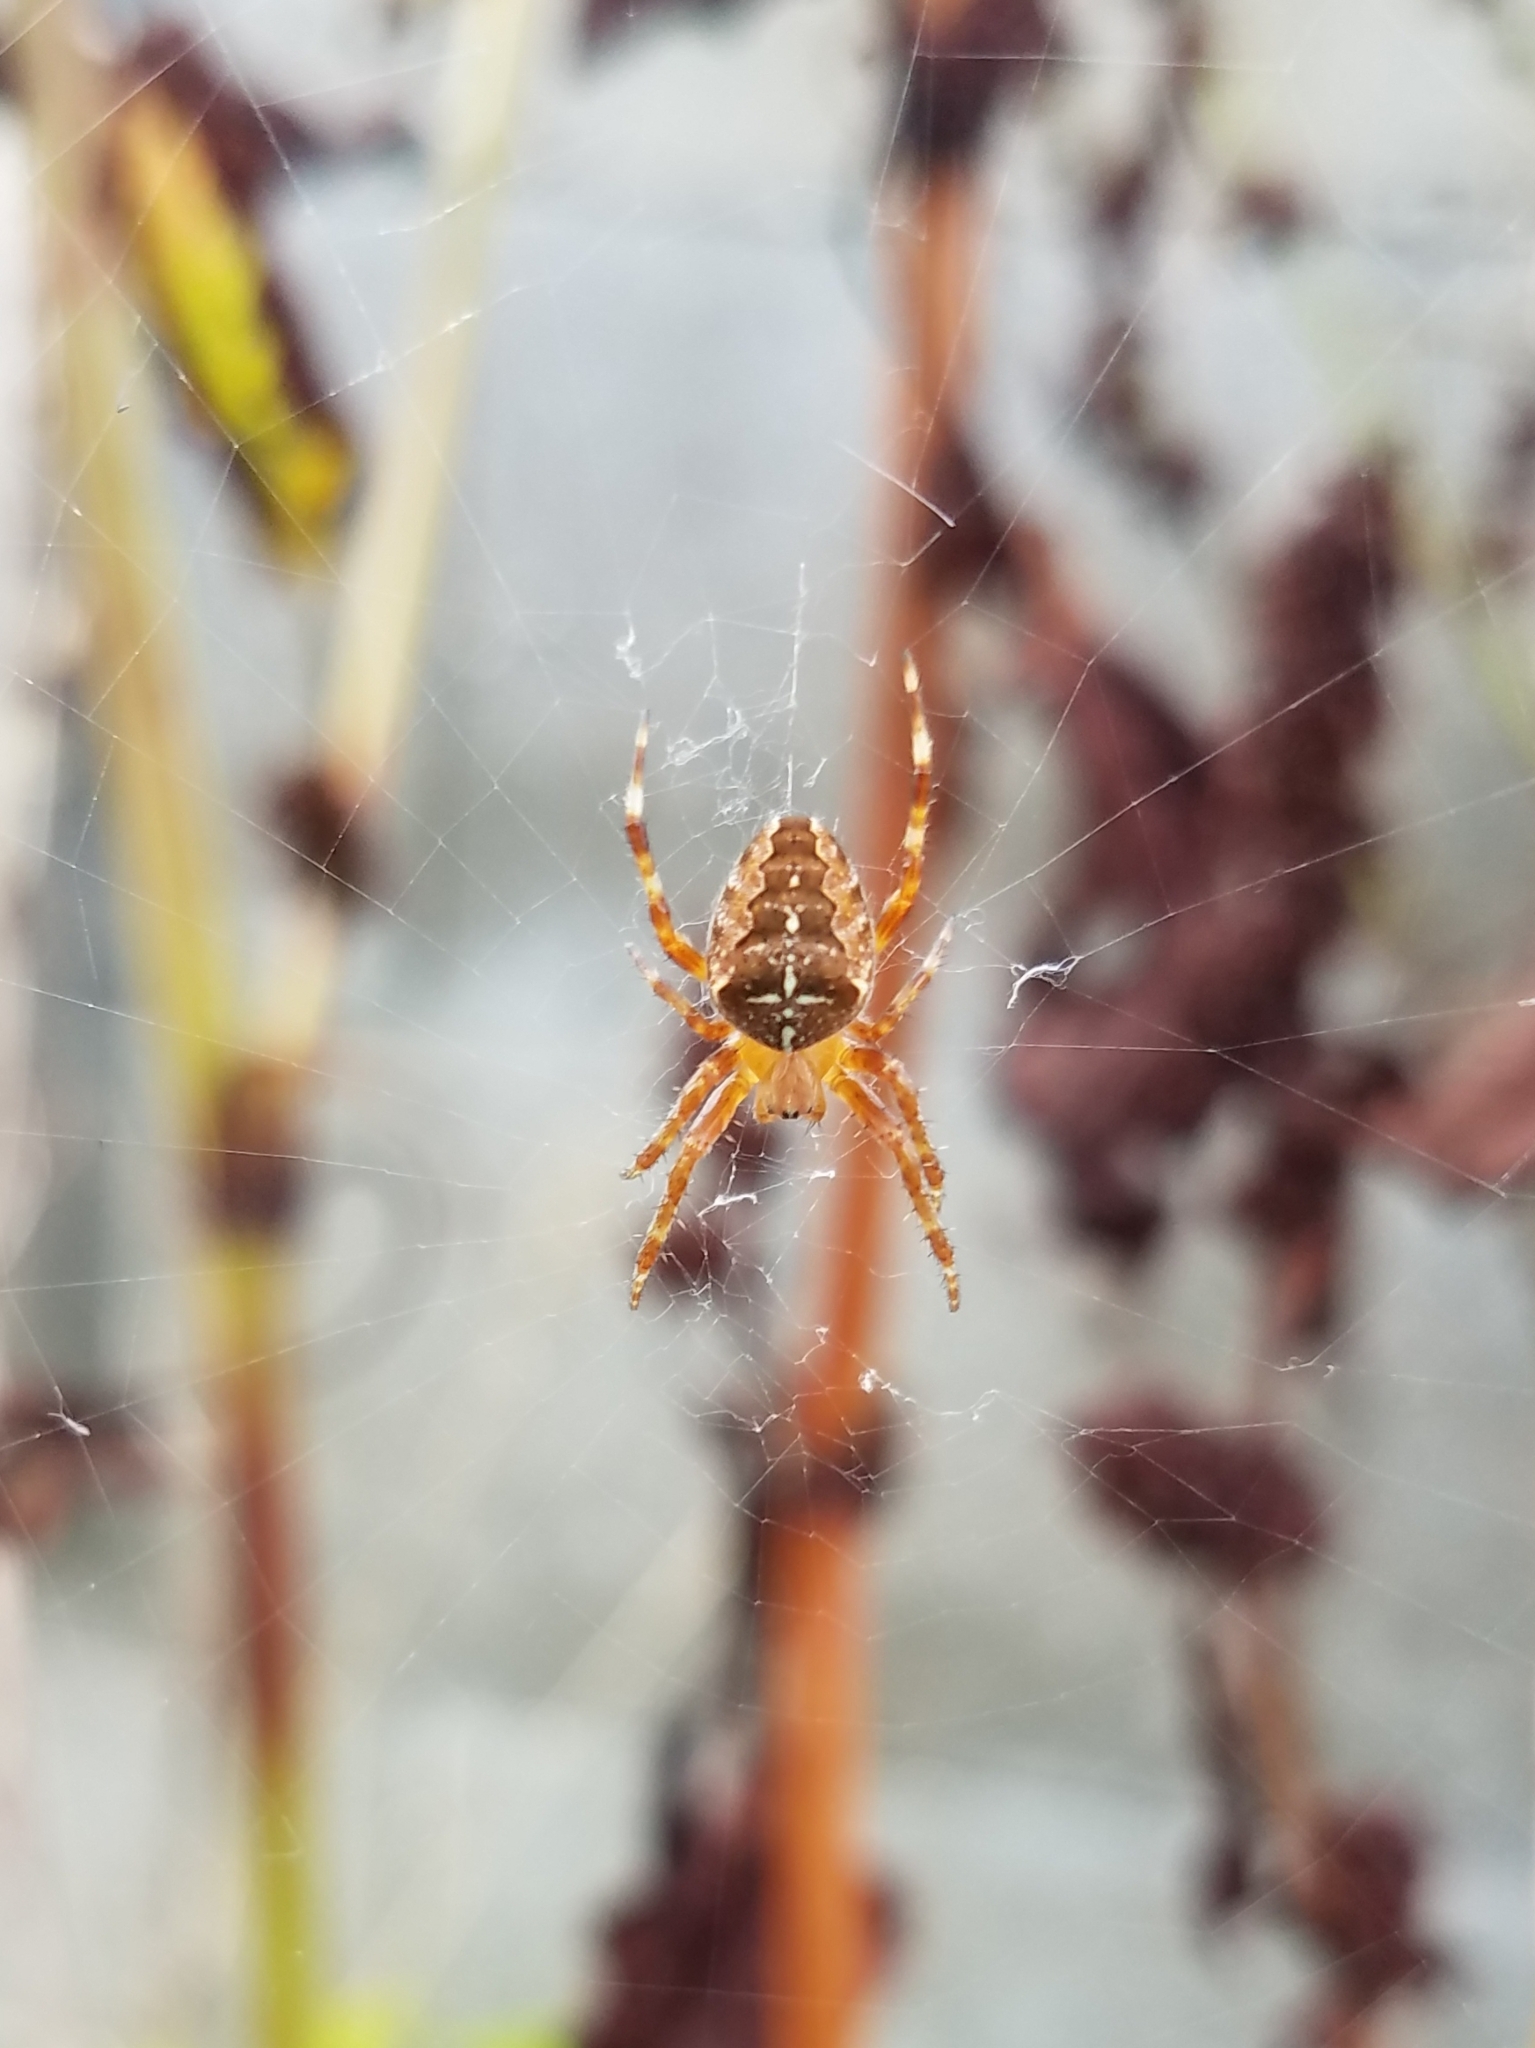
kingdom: Animalia
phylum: Arthropoda
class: Arachnida
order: Araneae
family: Araneidae
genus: Araneus
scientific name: Araneus diadematus
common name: Cross orbweaver
